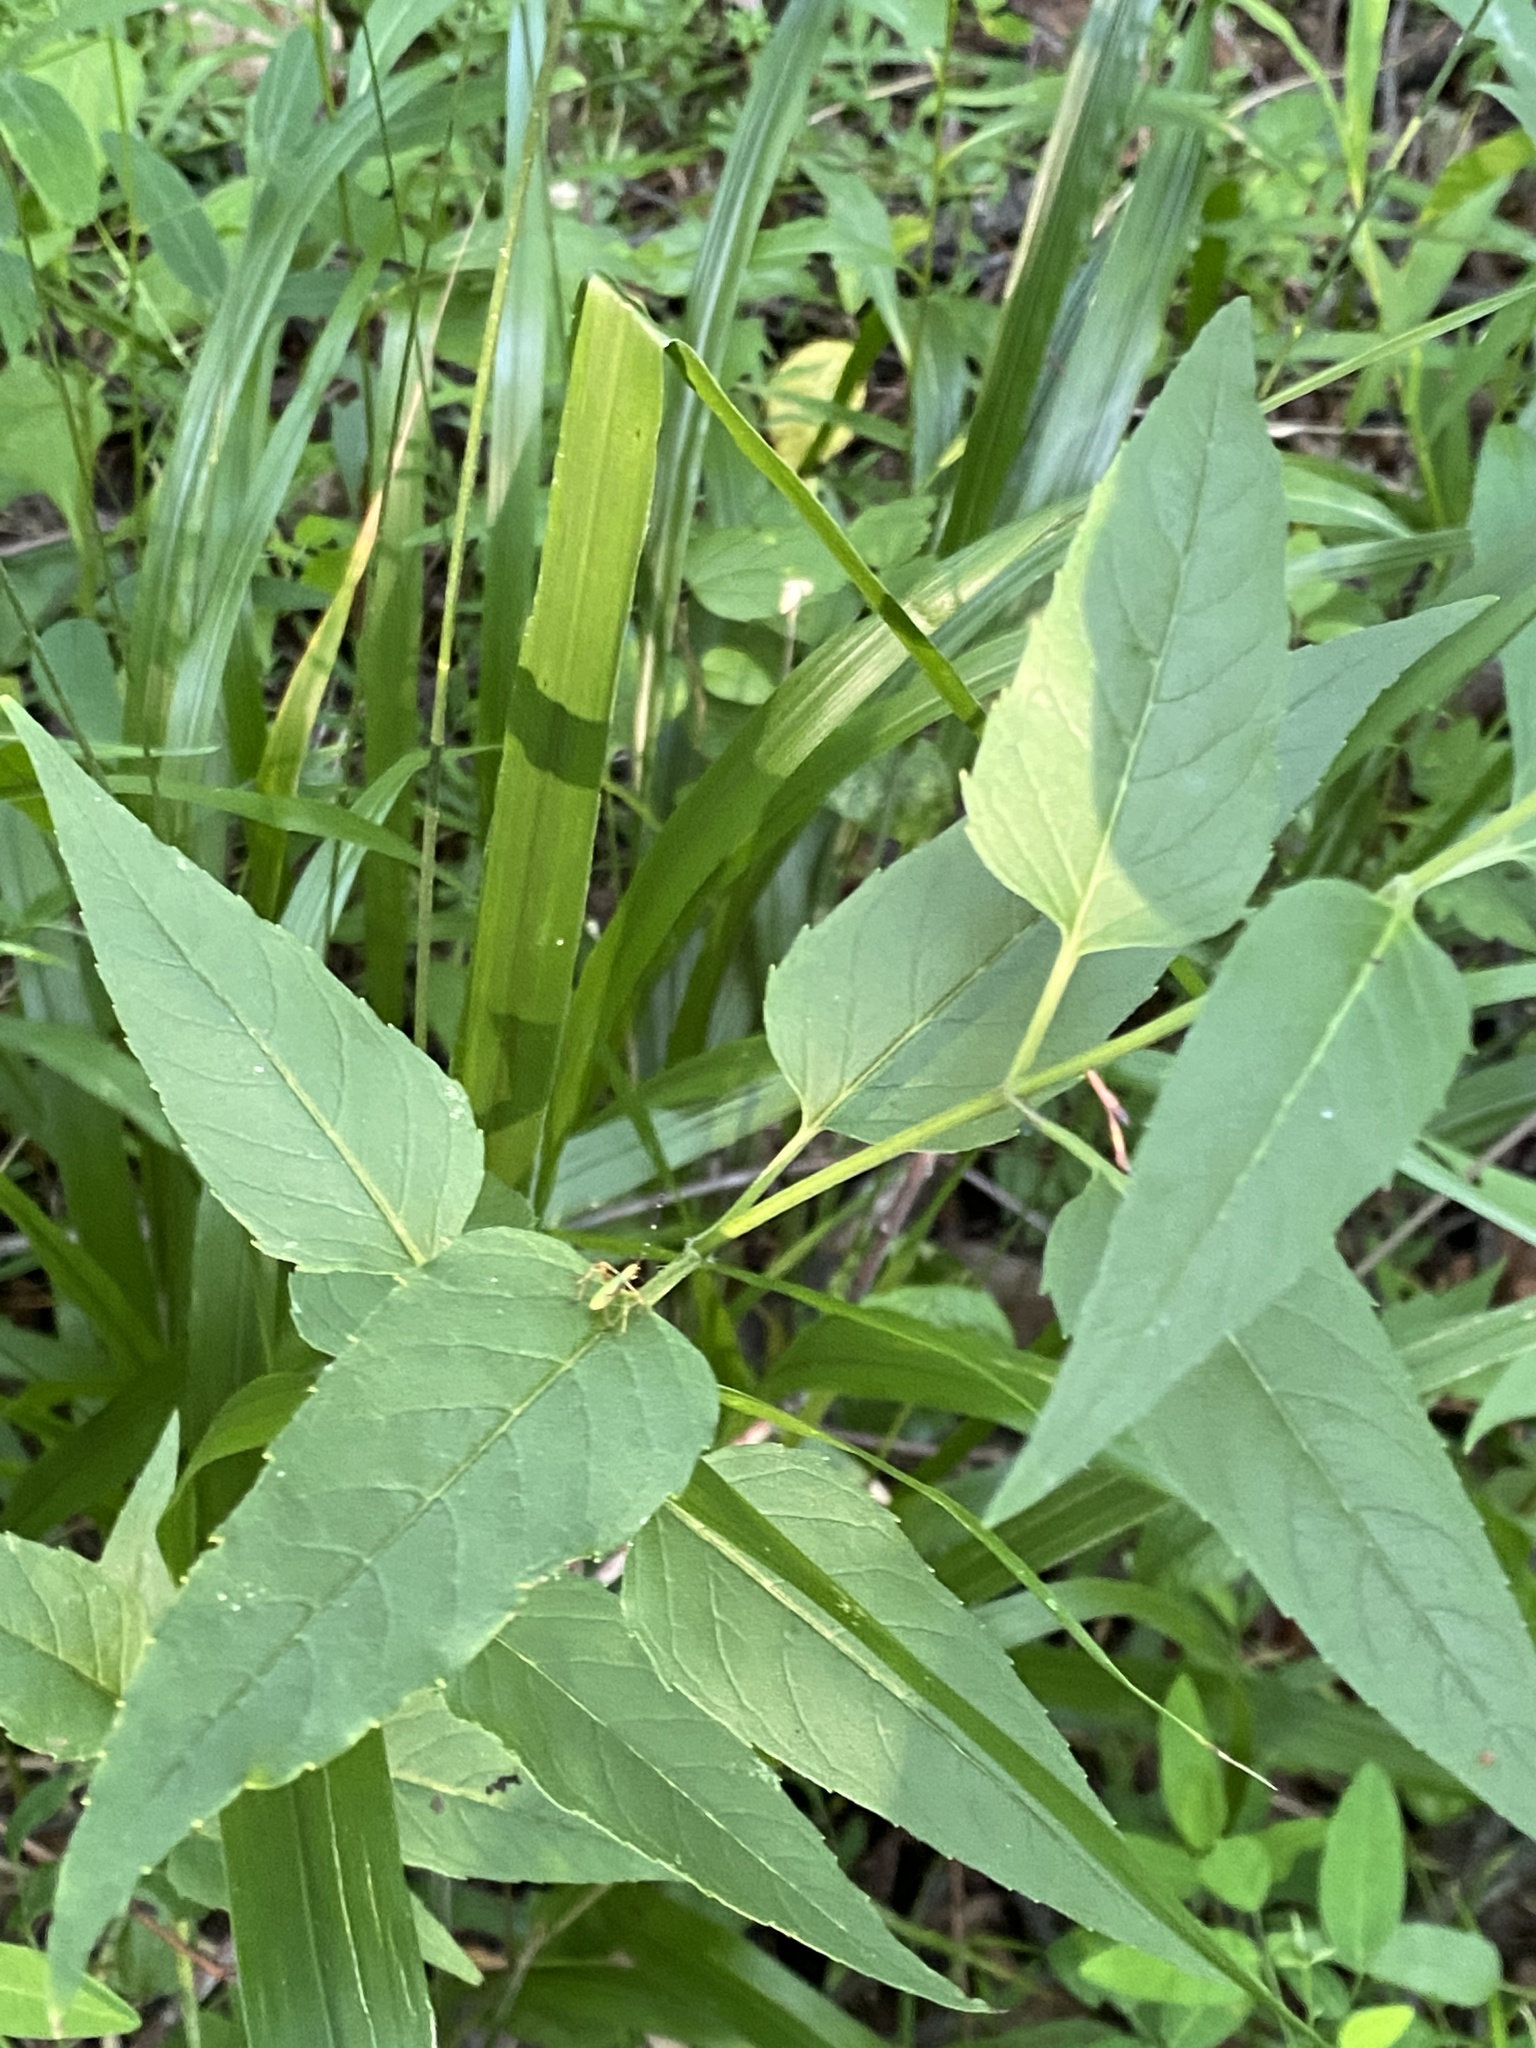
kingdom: Plantae
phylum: Tracheophyta
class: Magnoliopsida
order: Lamiales
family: Lamiaceae
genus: Monarda
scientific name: Monarda fistulosa
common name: Purple beebalm
